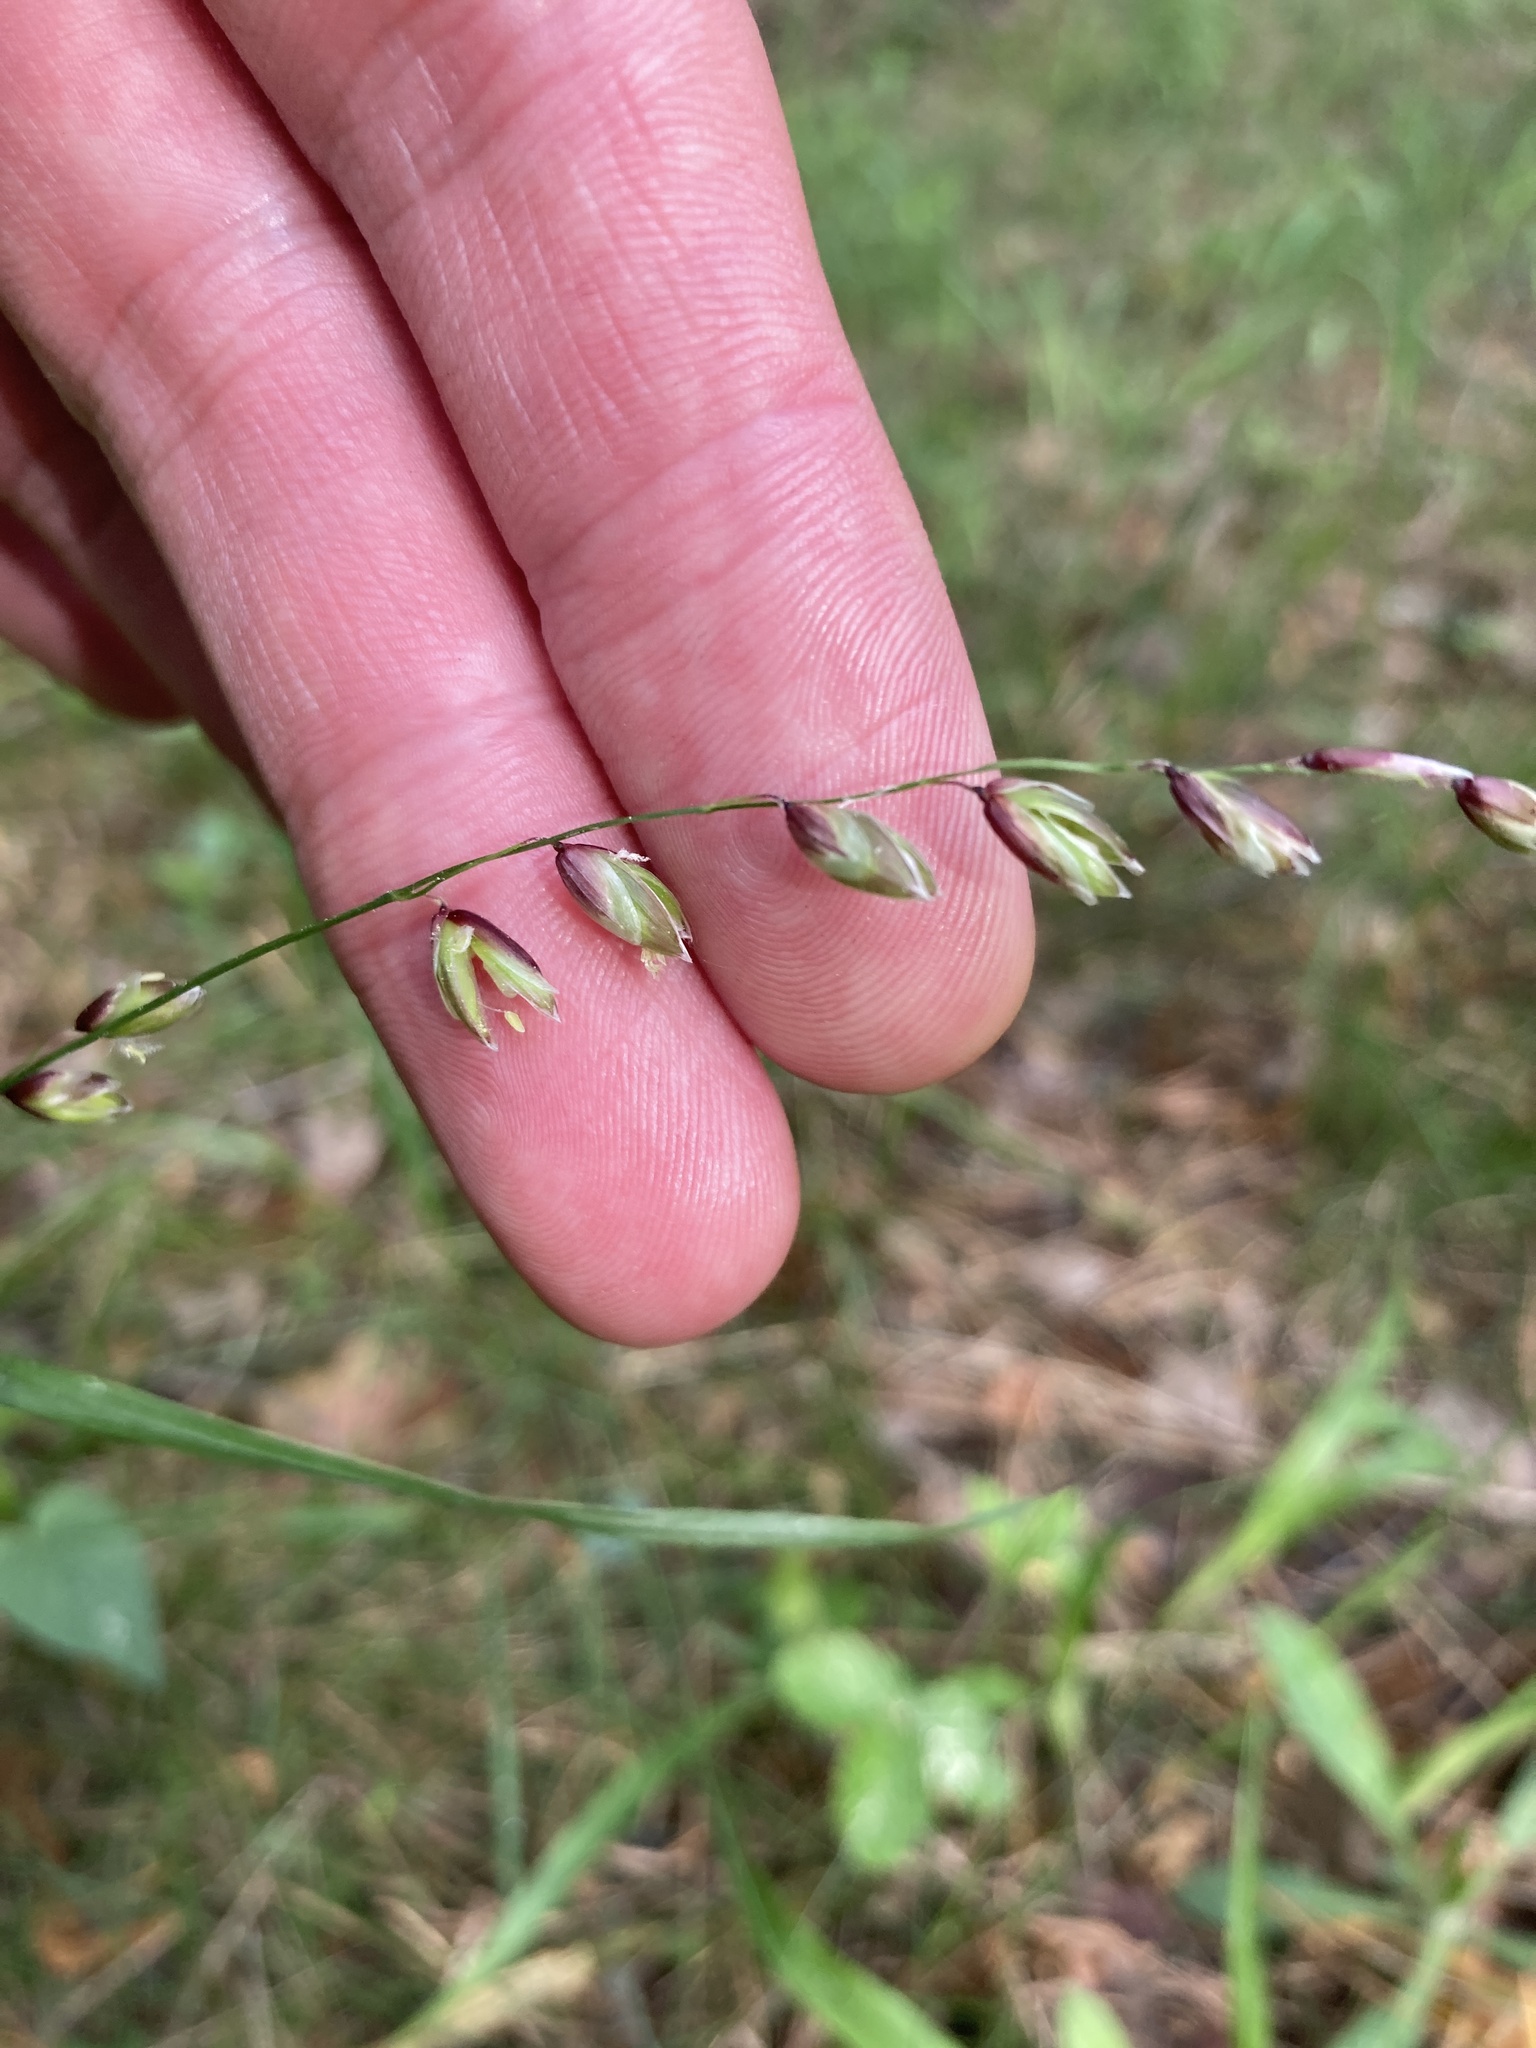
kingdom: Plantae
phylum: Tracheophyta
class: Liliopsida
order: Poales
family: Poaceae
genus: Melica
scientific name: Melica nutans
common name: Mountain melick
